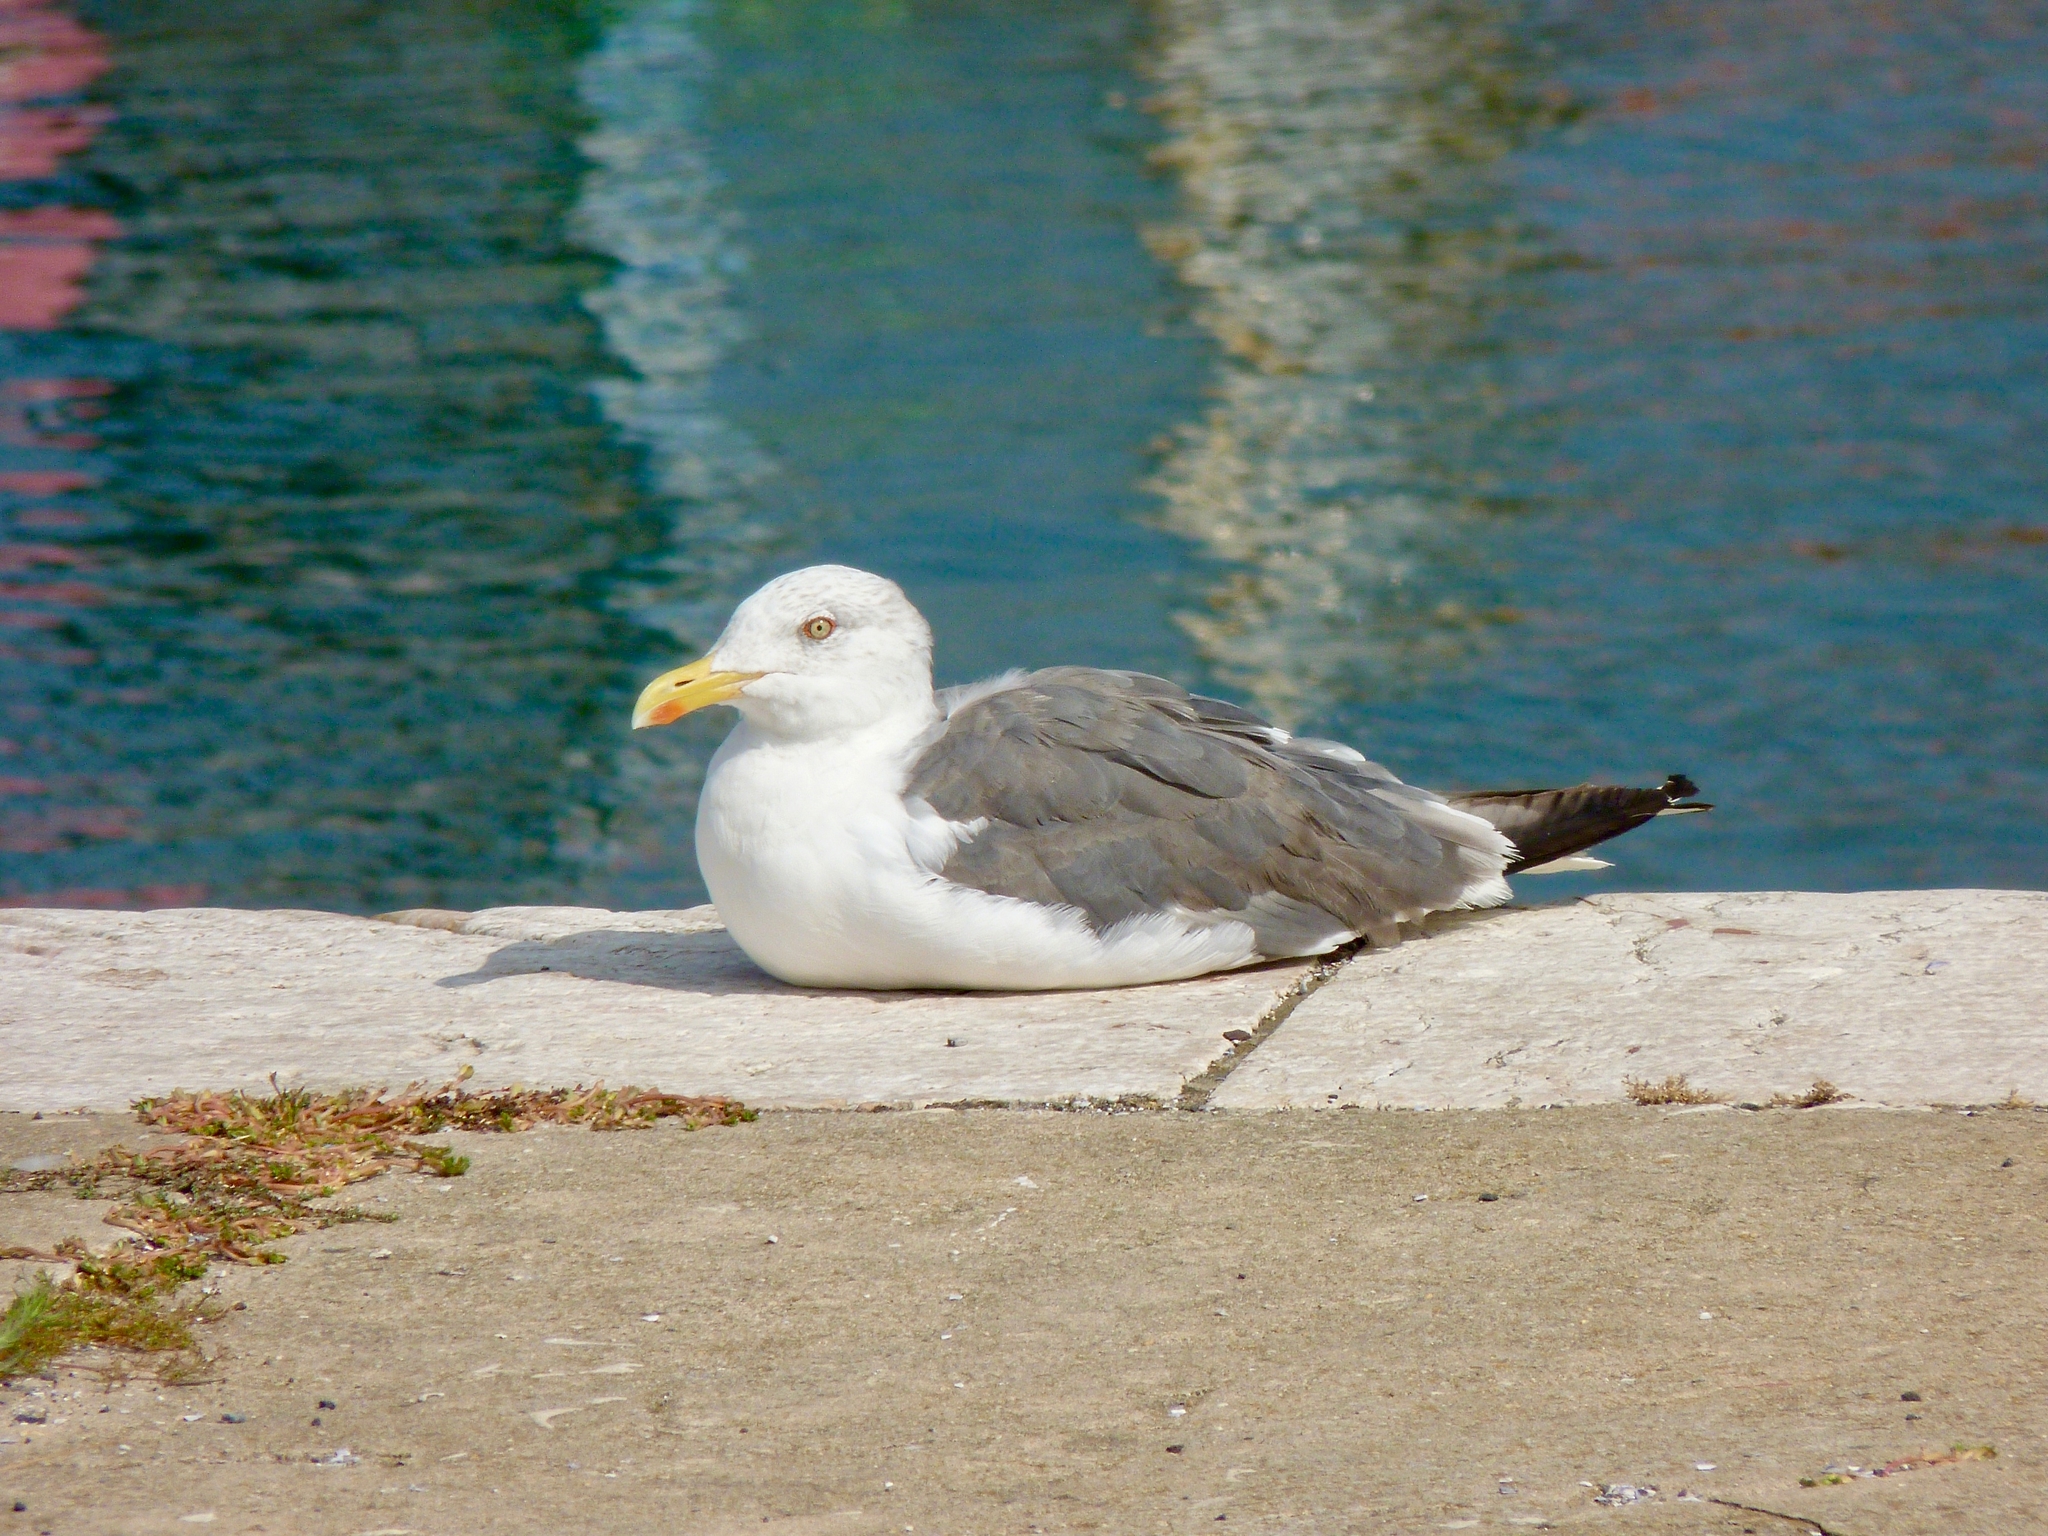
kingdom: Animalia
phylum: Chordata
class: Aves
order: Charadriiformes
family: Laridae
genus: Larus
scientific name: Larus fuscus
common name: Lesser black-backed gull
